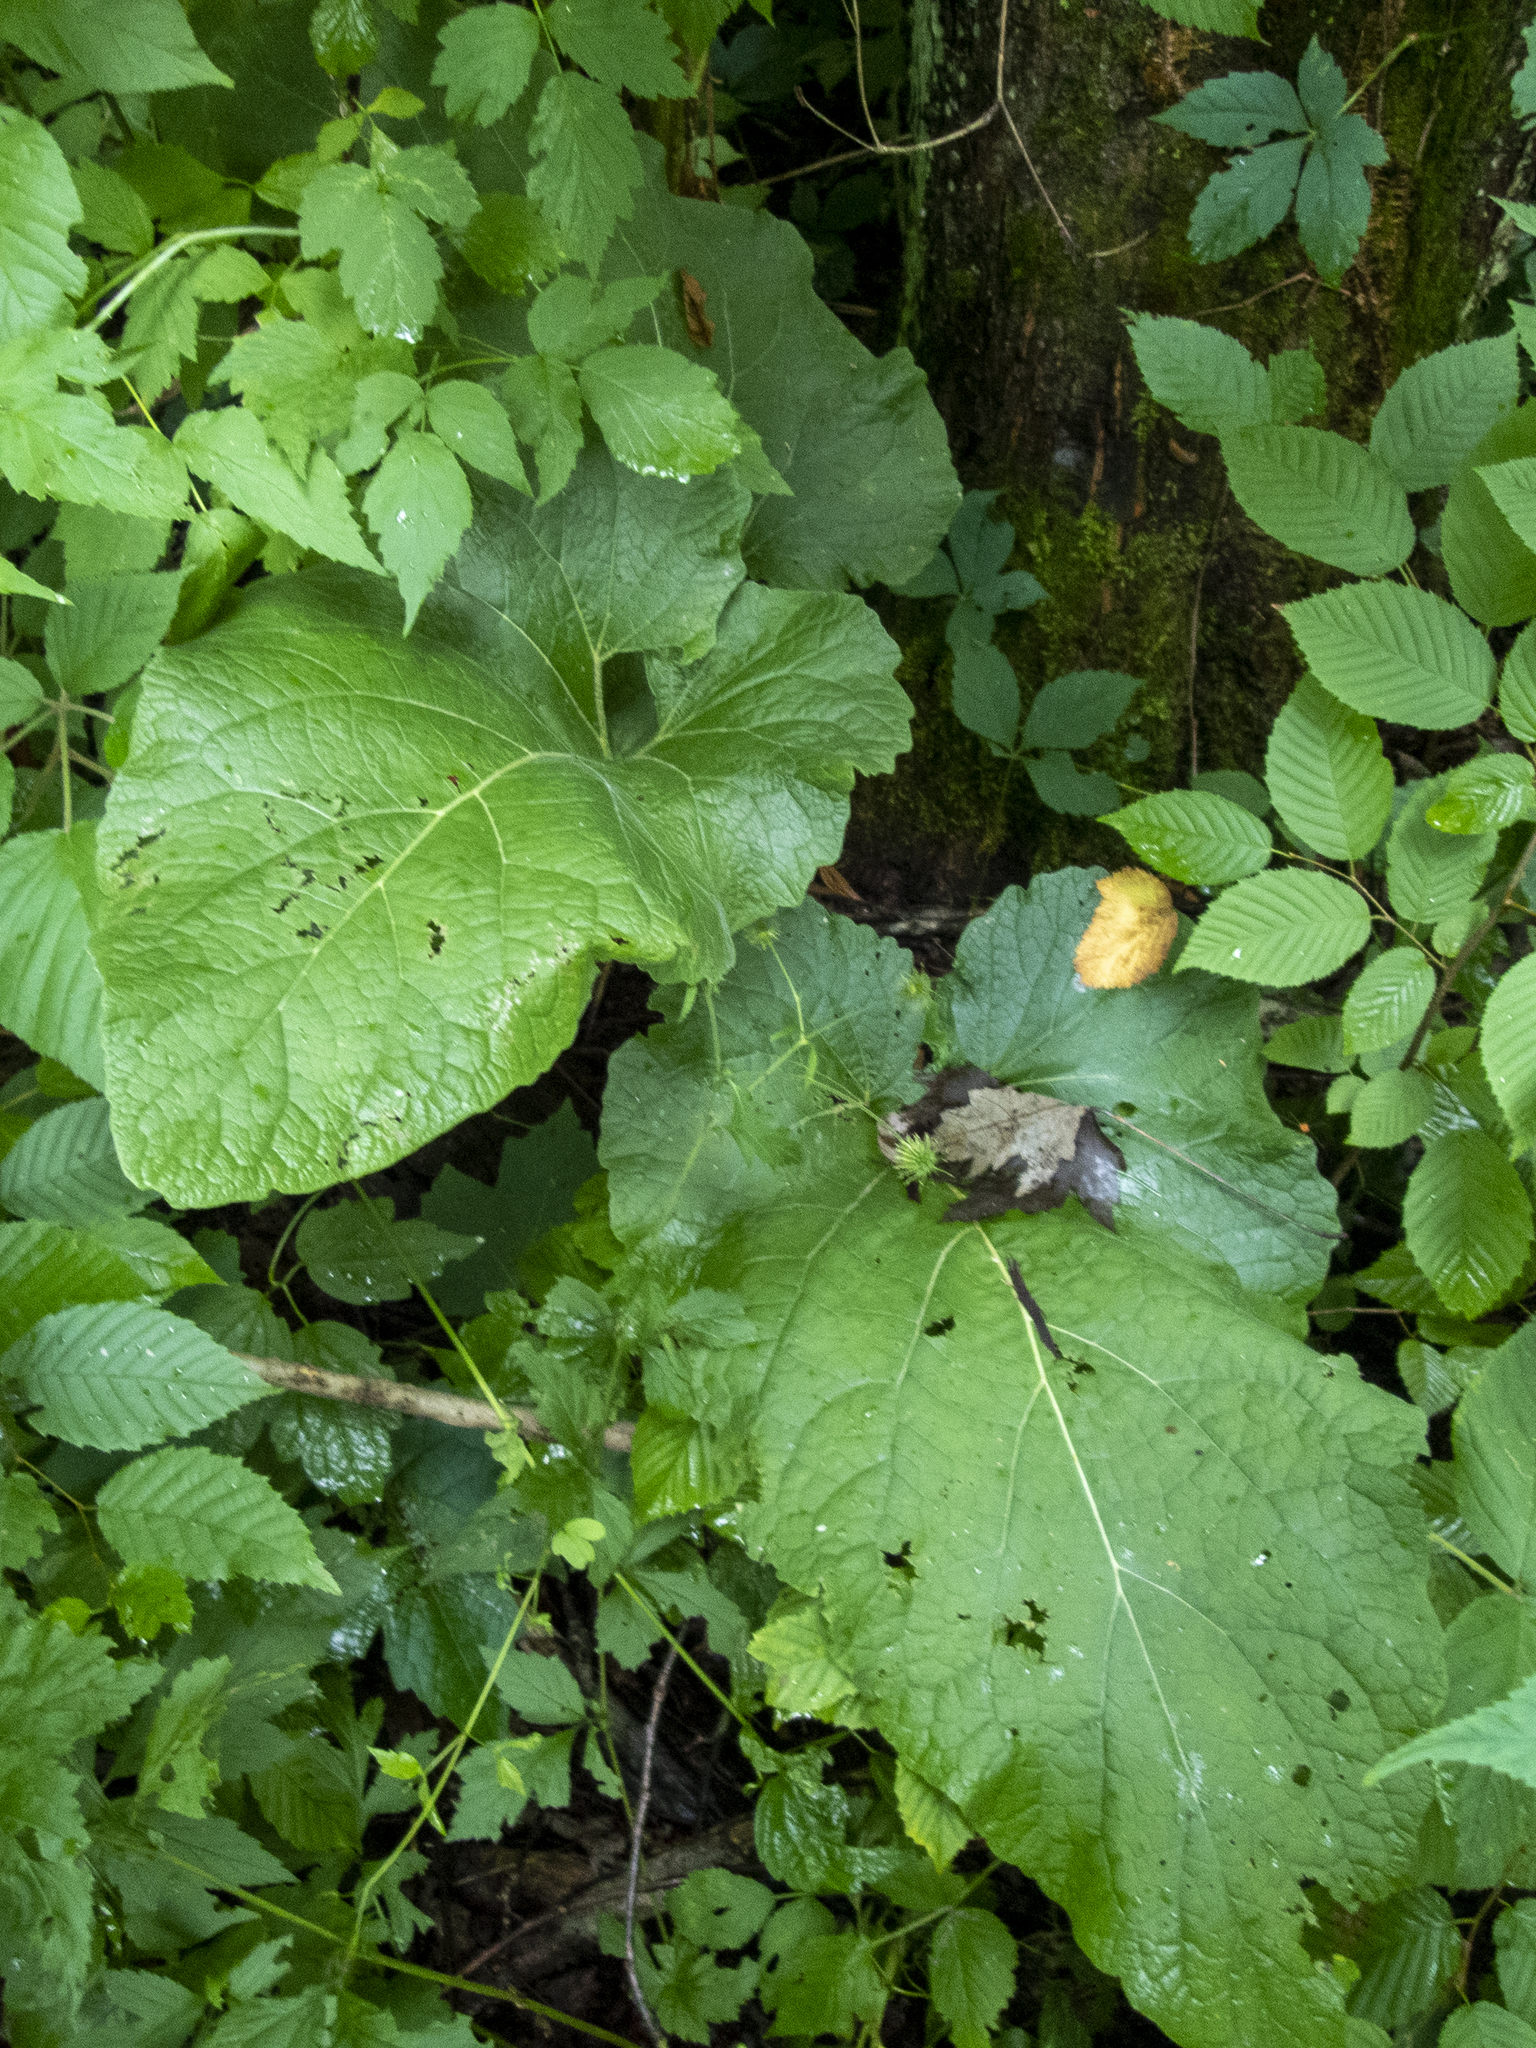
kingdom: Plantae
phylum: Tracheophyta
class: Magnoliopsida
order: Asterales
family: Asteraceae
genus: Arctium
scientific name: Arctium
